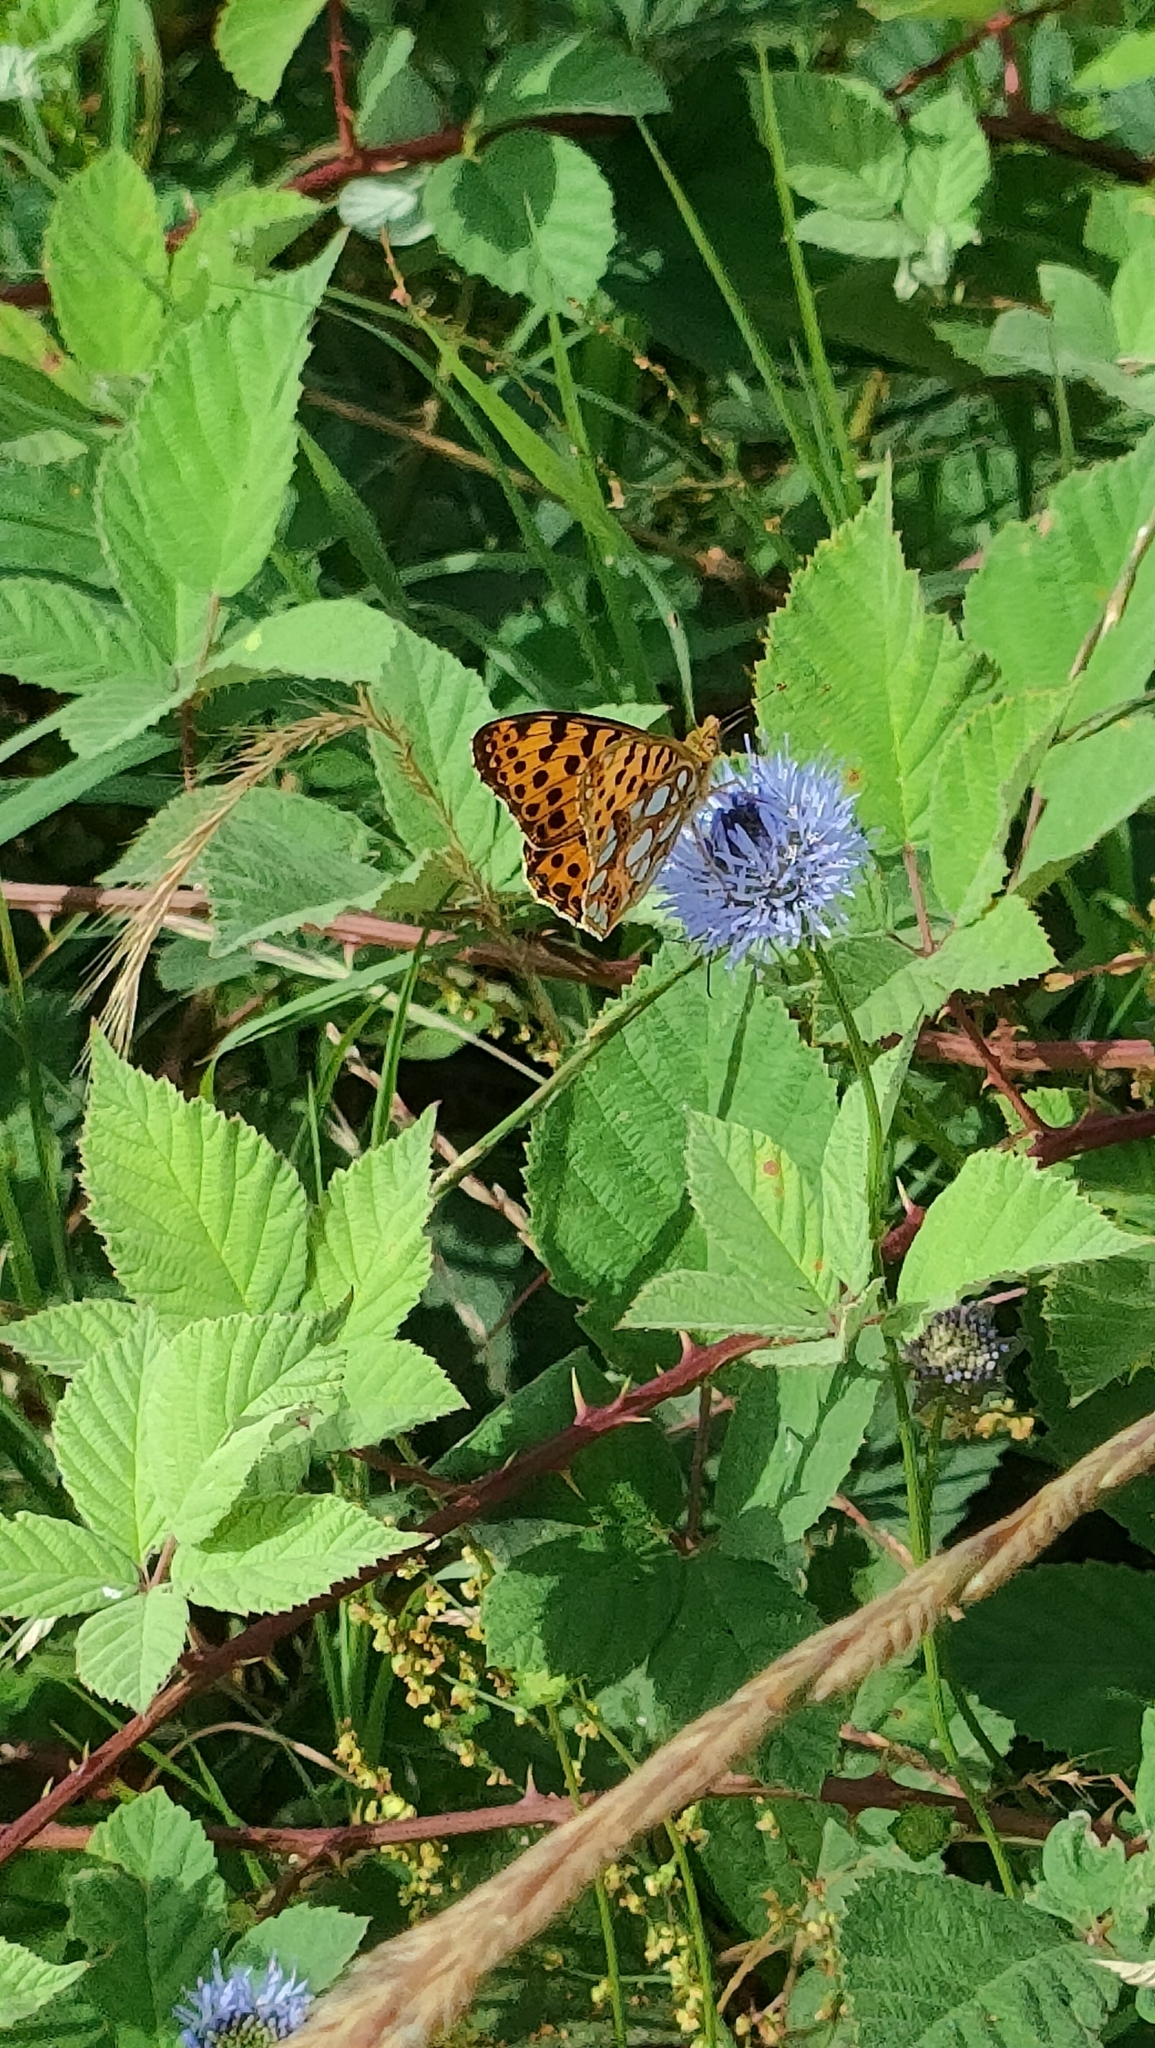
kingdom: Animalia
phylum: Arthropoda
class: Insecta
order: Lepidoptera
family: Nymphalidae
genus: Issoria
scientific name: Issoria lathonia
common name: Queen of spain fritillary
